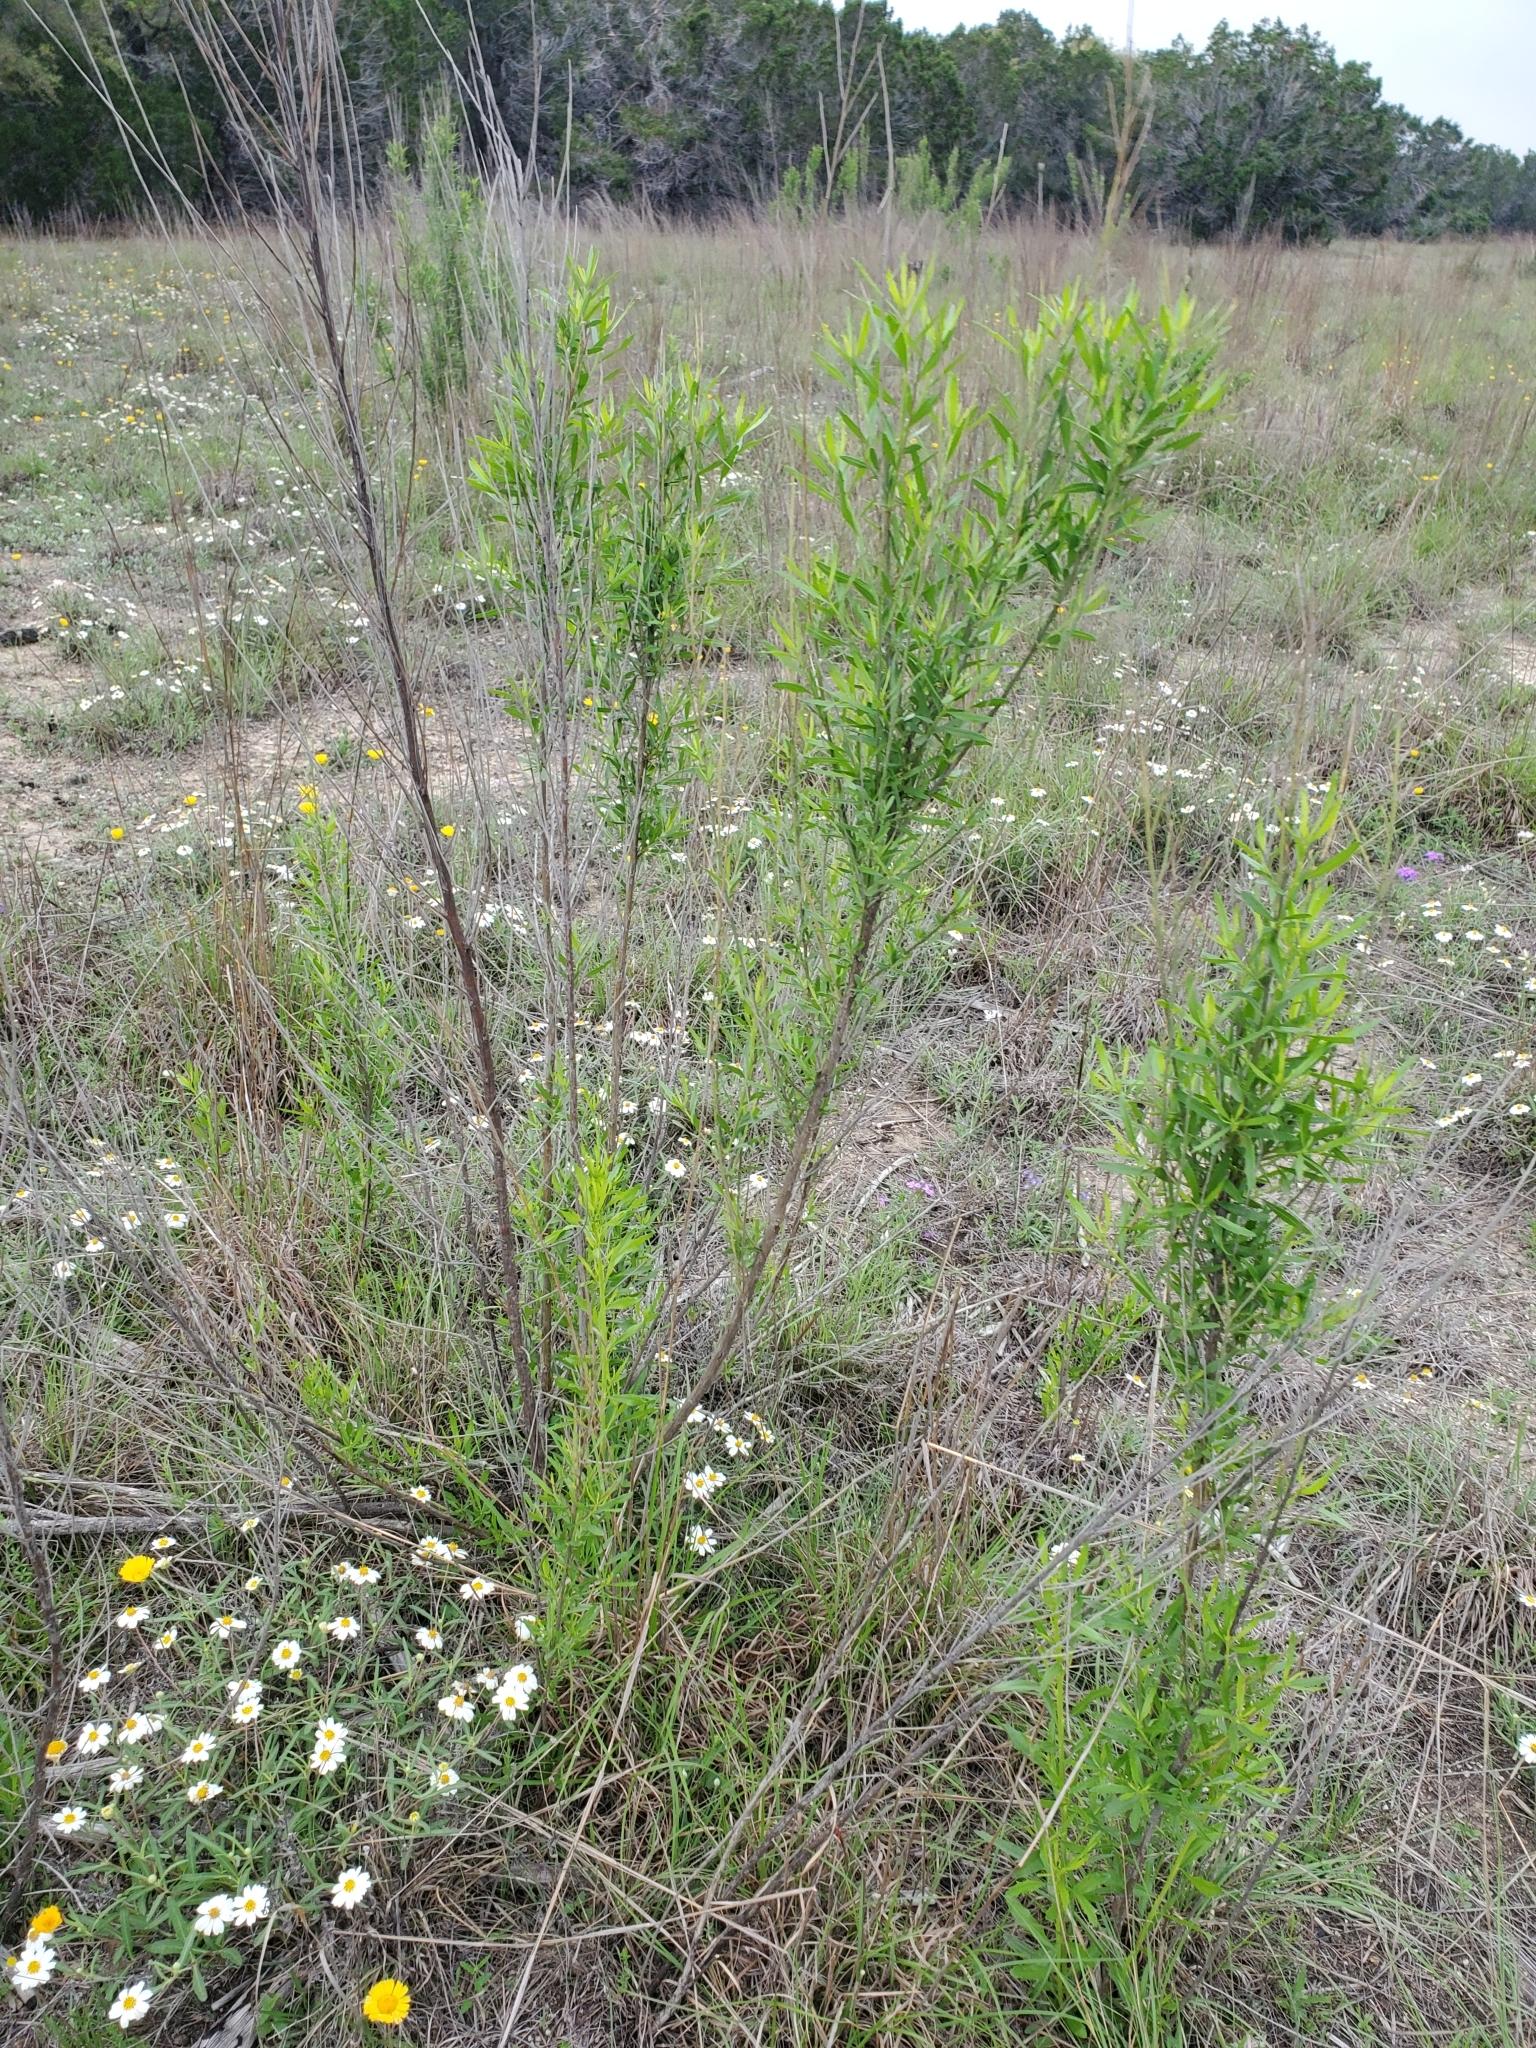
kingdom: Plantae
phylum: Tracheophyta
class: Magnoliopsida
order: Asterales
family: Asteraceae
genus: Baccharis
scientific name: Baccharis neglecta
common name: Roosevelt-weed
